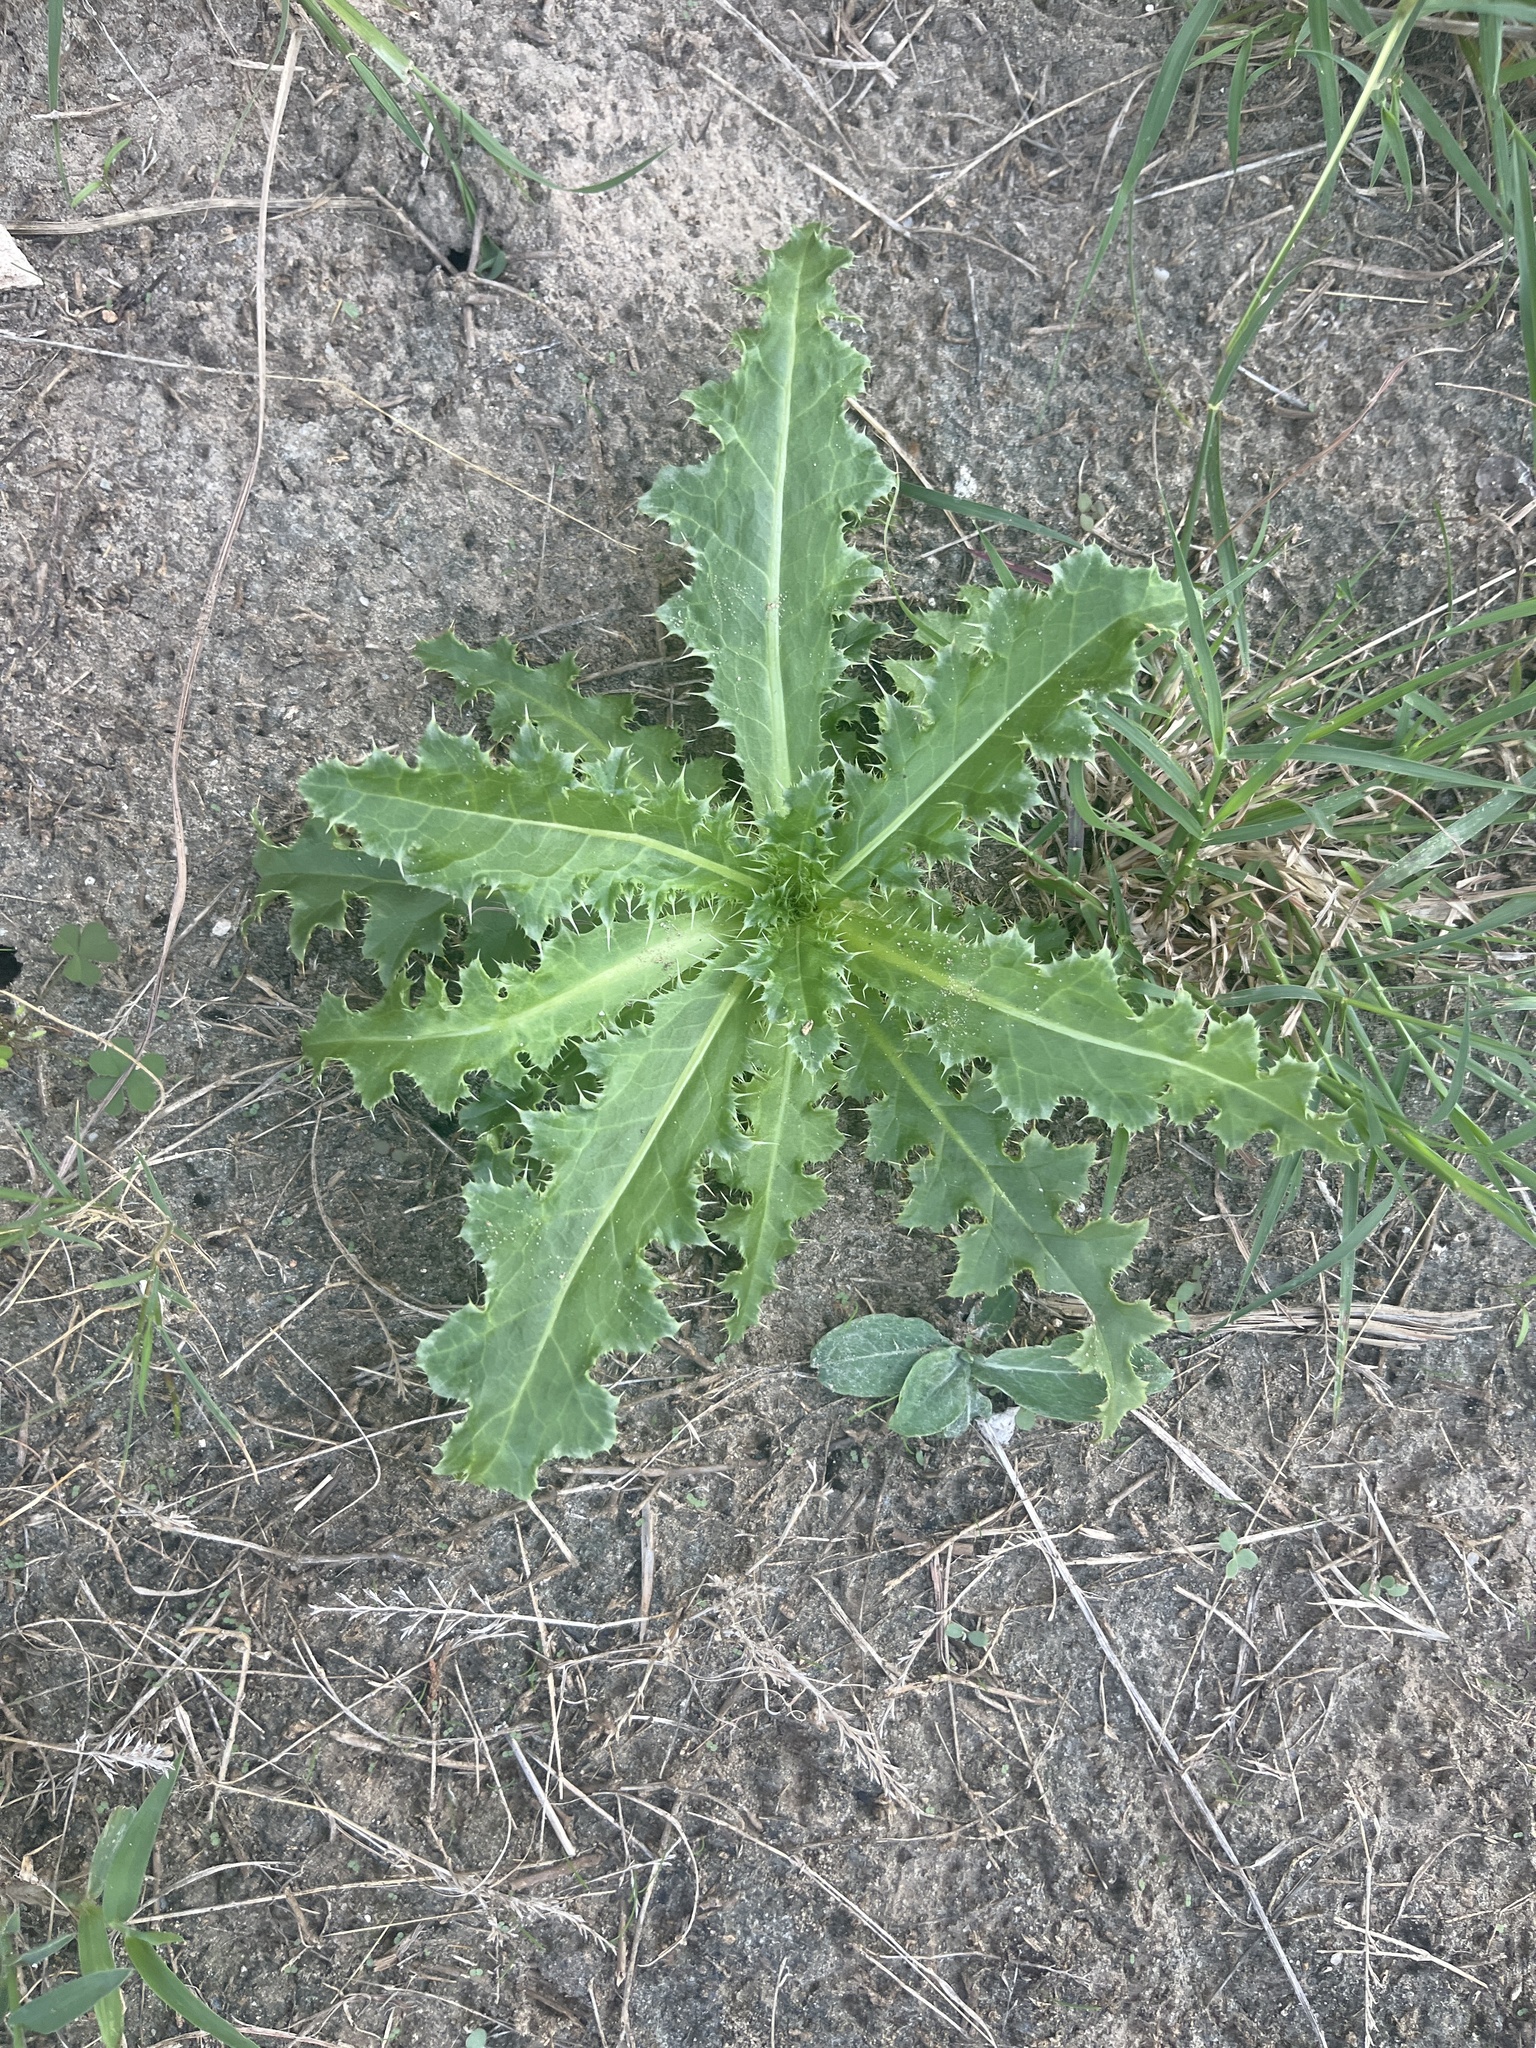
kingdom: Plantae
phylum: Tracheophyta
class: Magnoliopsida
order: Asterales
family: Asteraceae
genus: Carduus
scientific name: Carduus nutans
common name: Musk thistle
